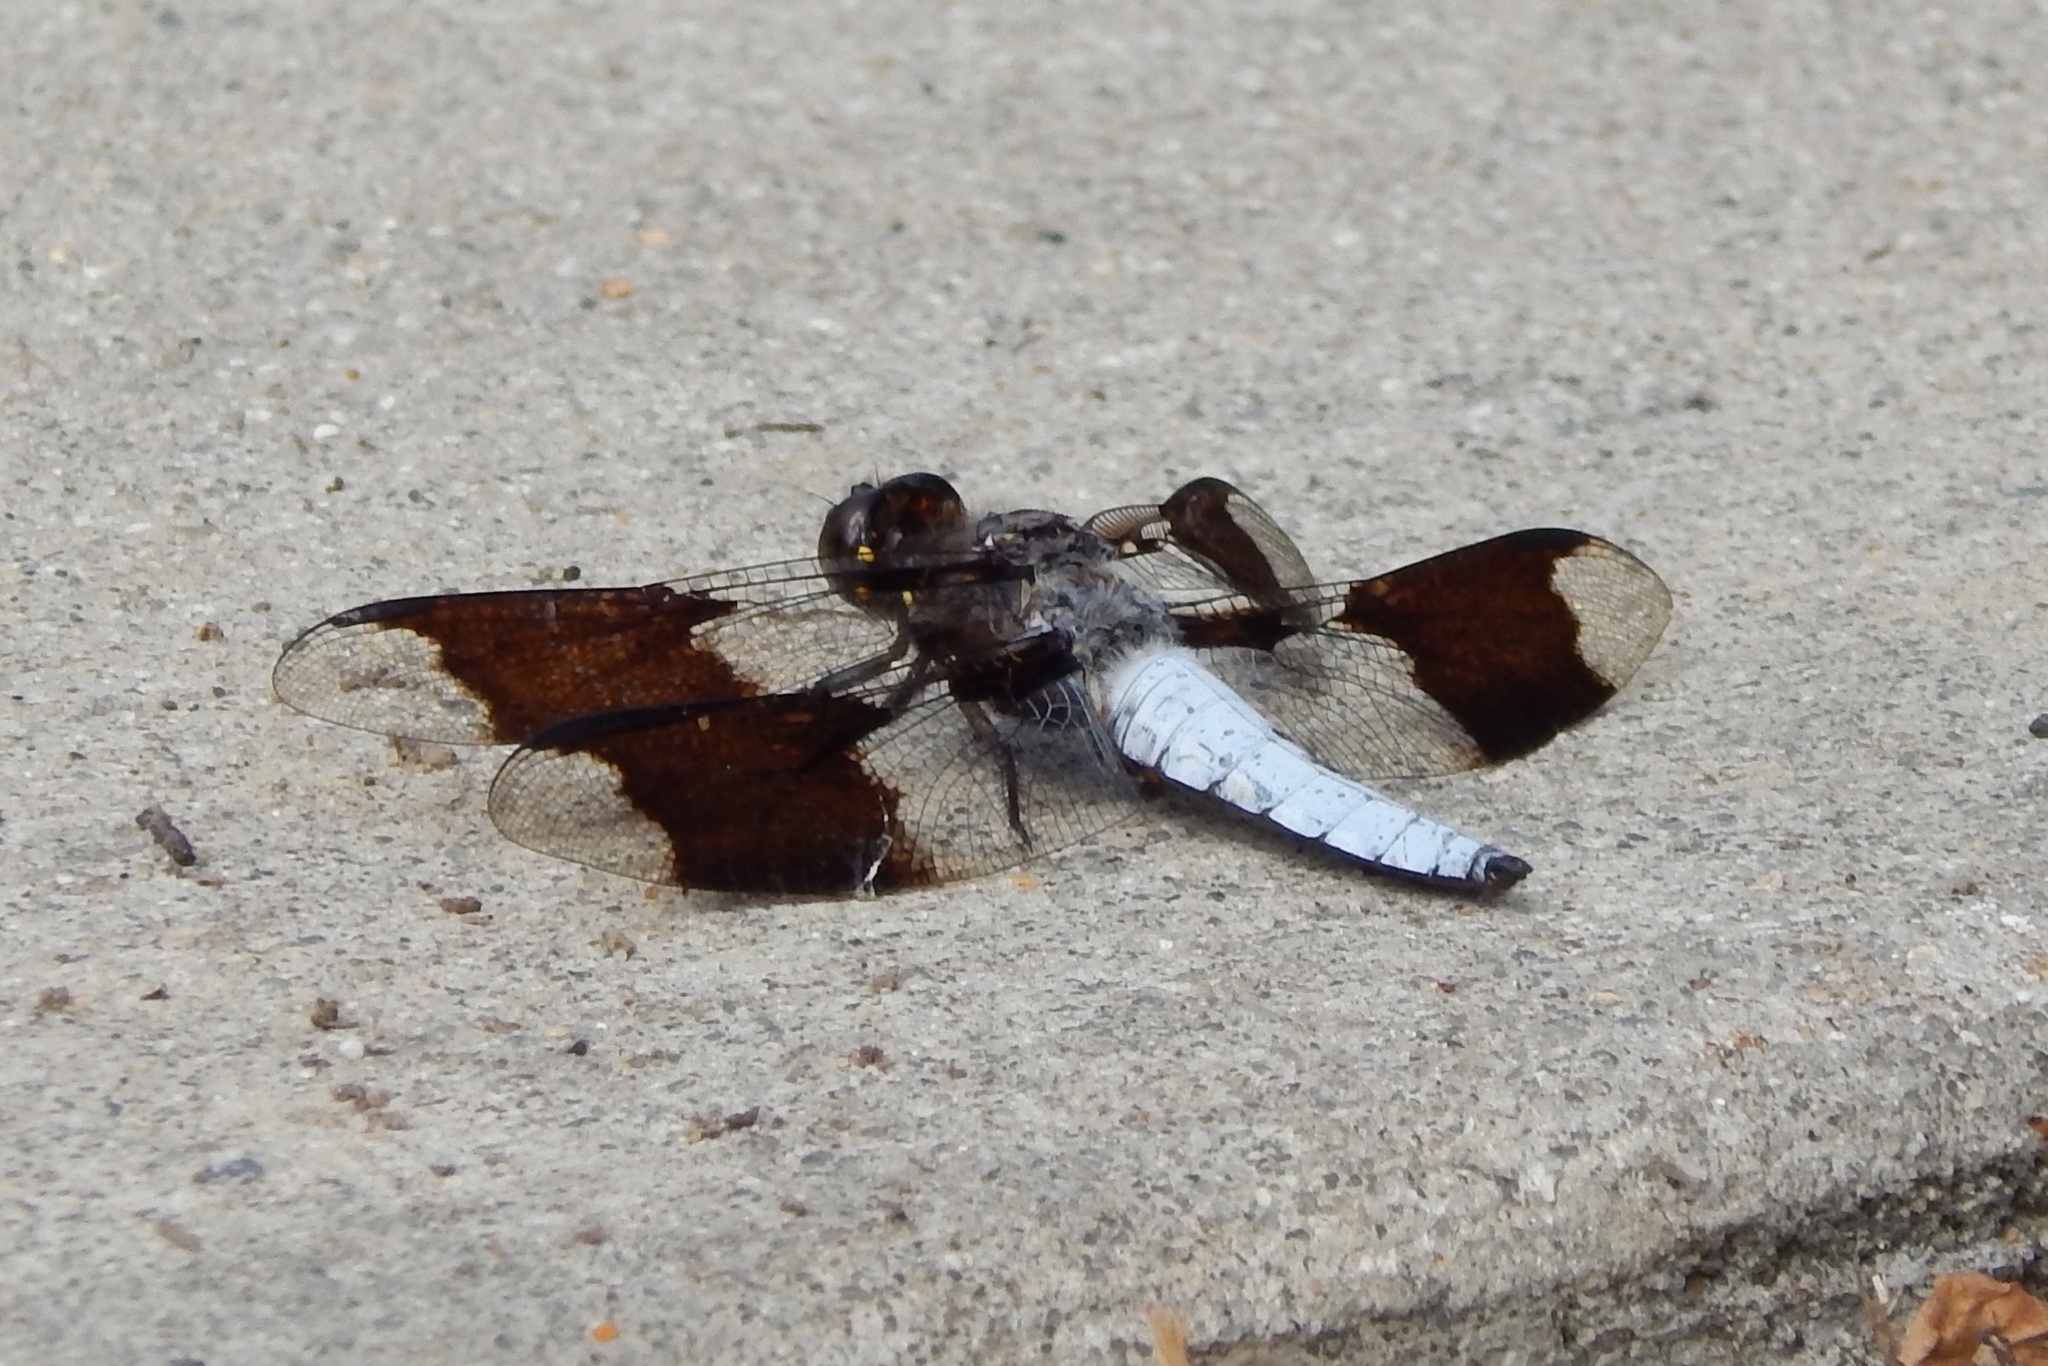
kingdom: Animalia
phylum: Arthropoda
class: Insecta
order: Odonata
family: Libellulidae
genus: Plathemis
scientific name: Plathemis lydia
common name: Common whitetail
